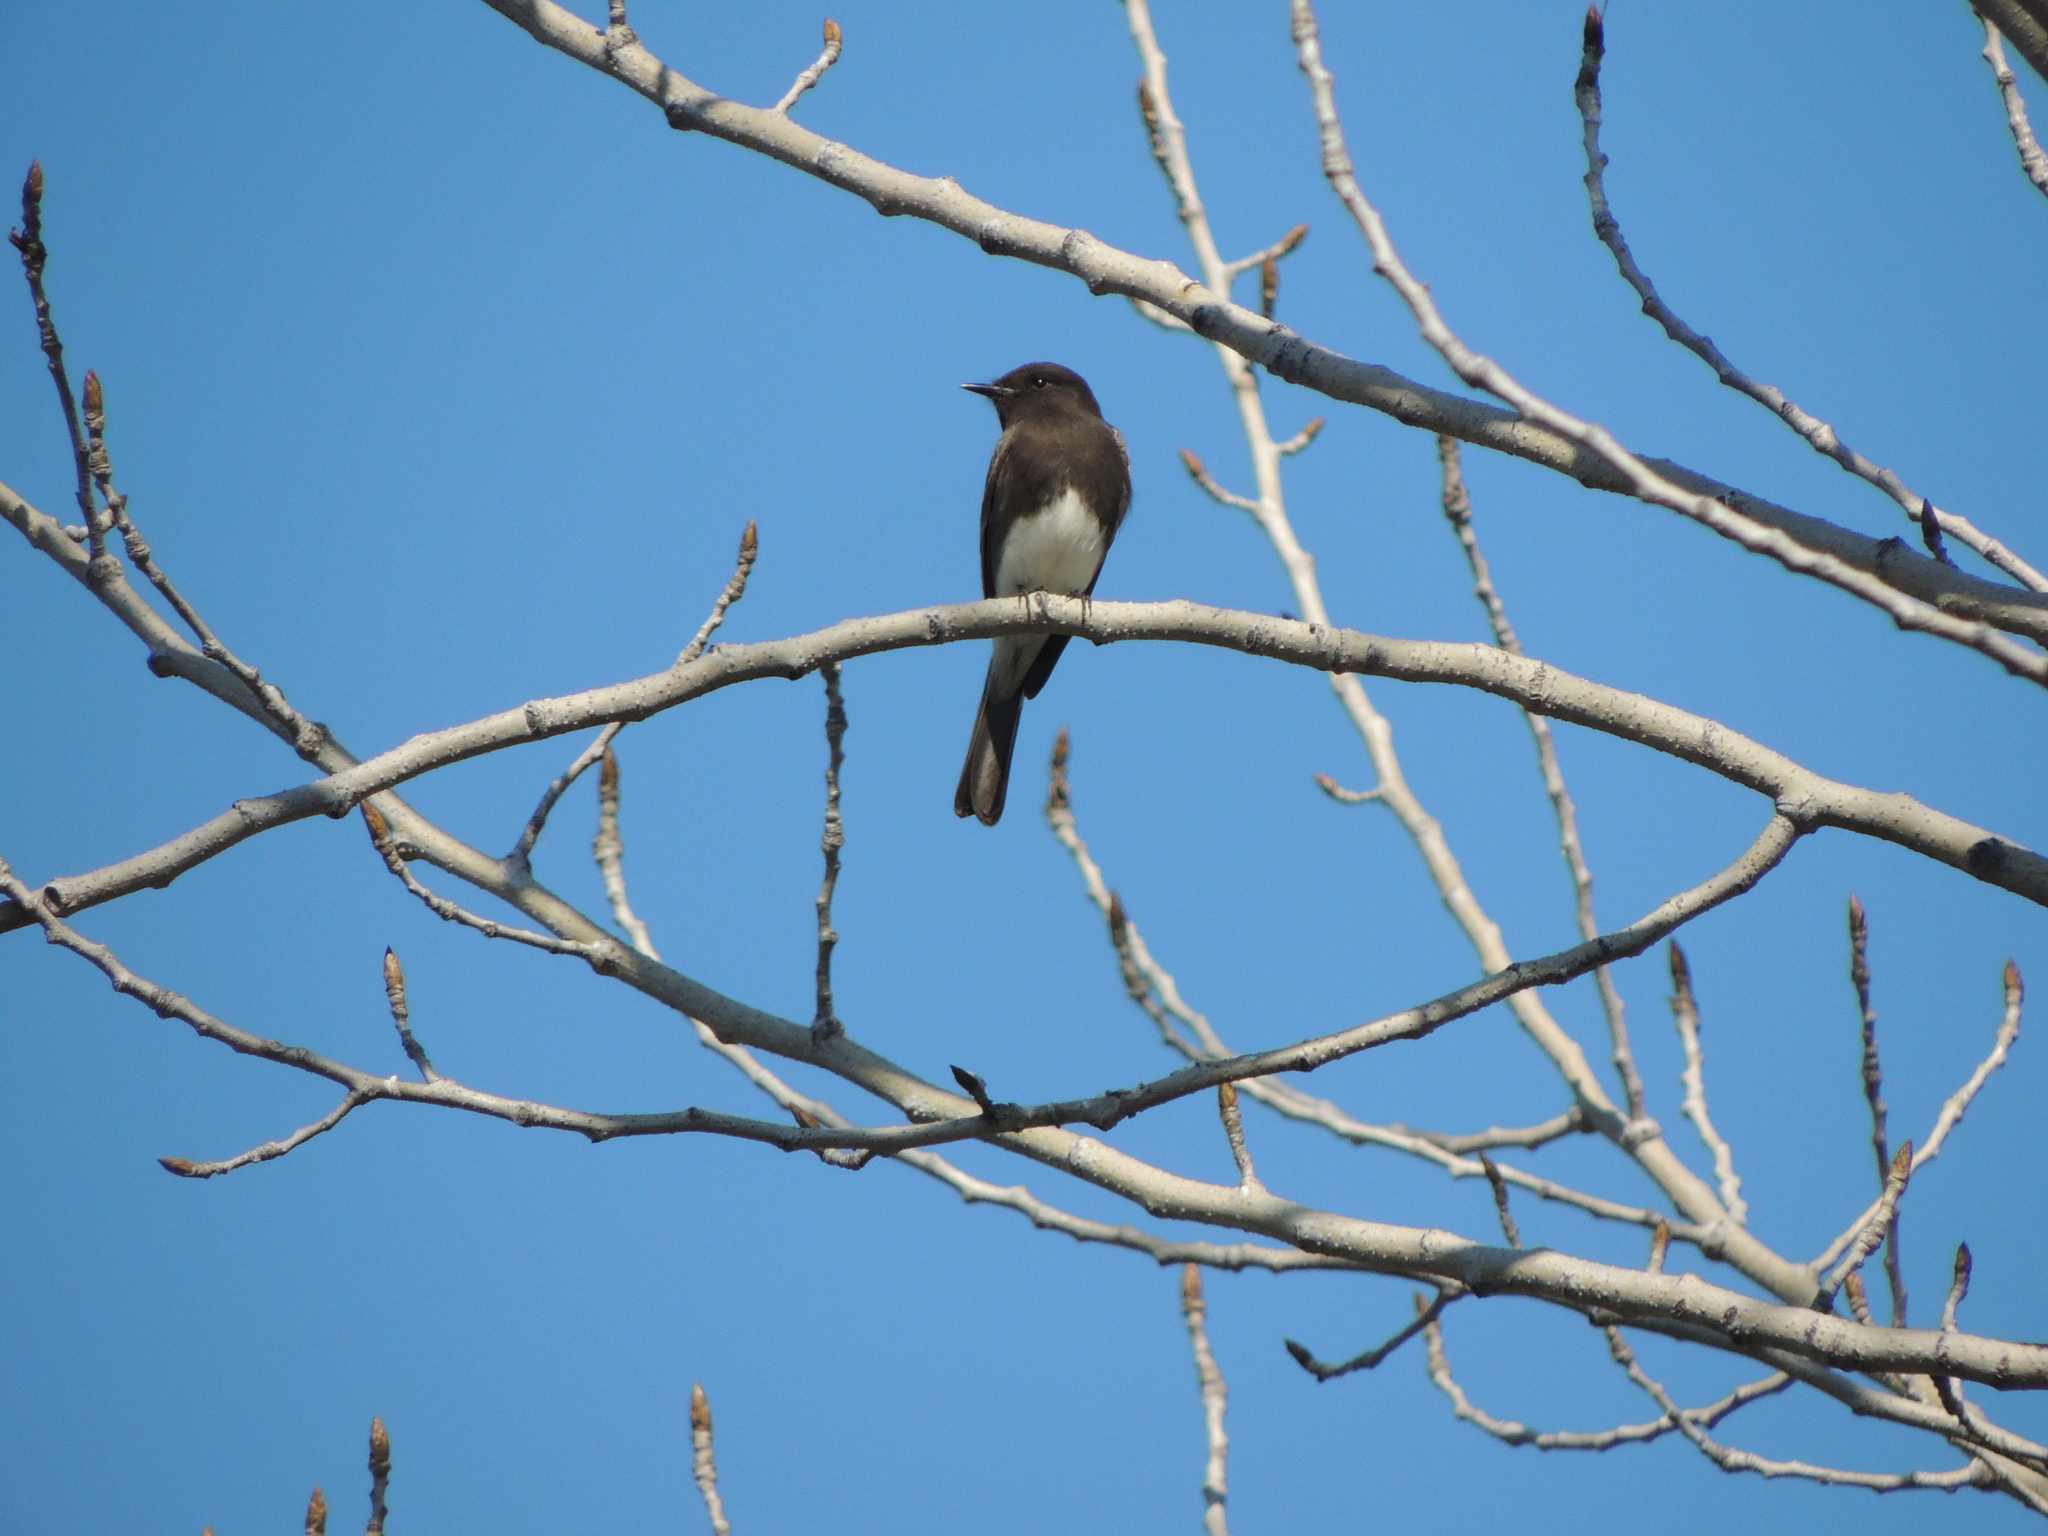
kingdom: Animalia
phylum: Chordata
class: Aves
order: Passeriformes
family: Tyrannidae
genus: Sayornis
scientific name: Sayornis nigricans
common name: Black phoebe
